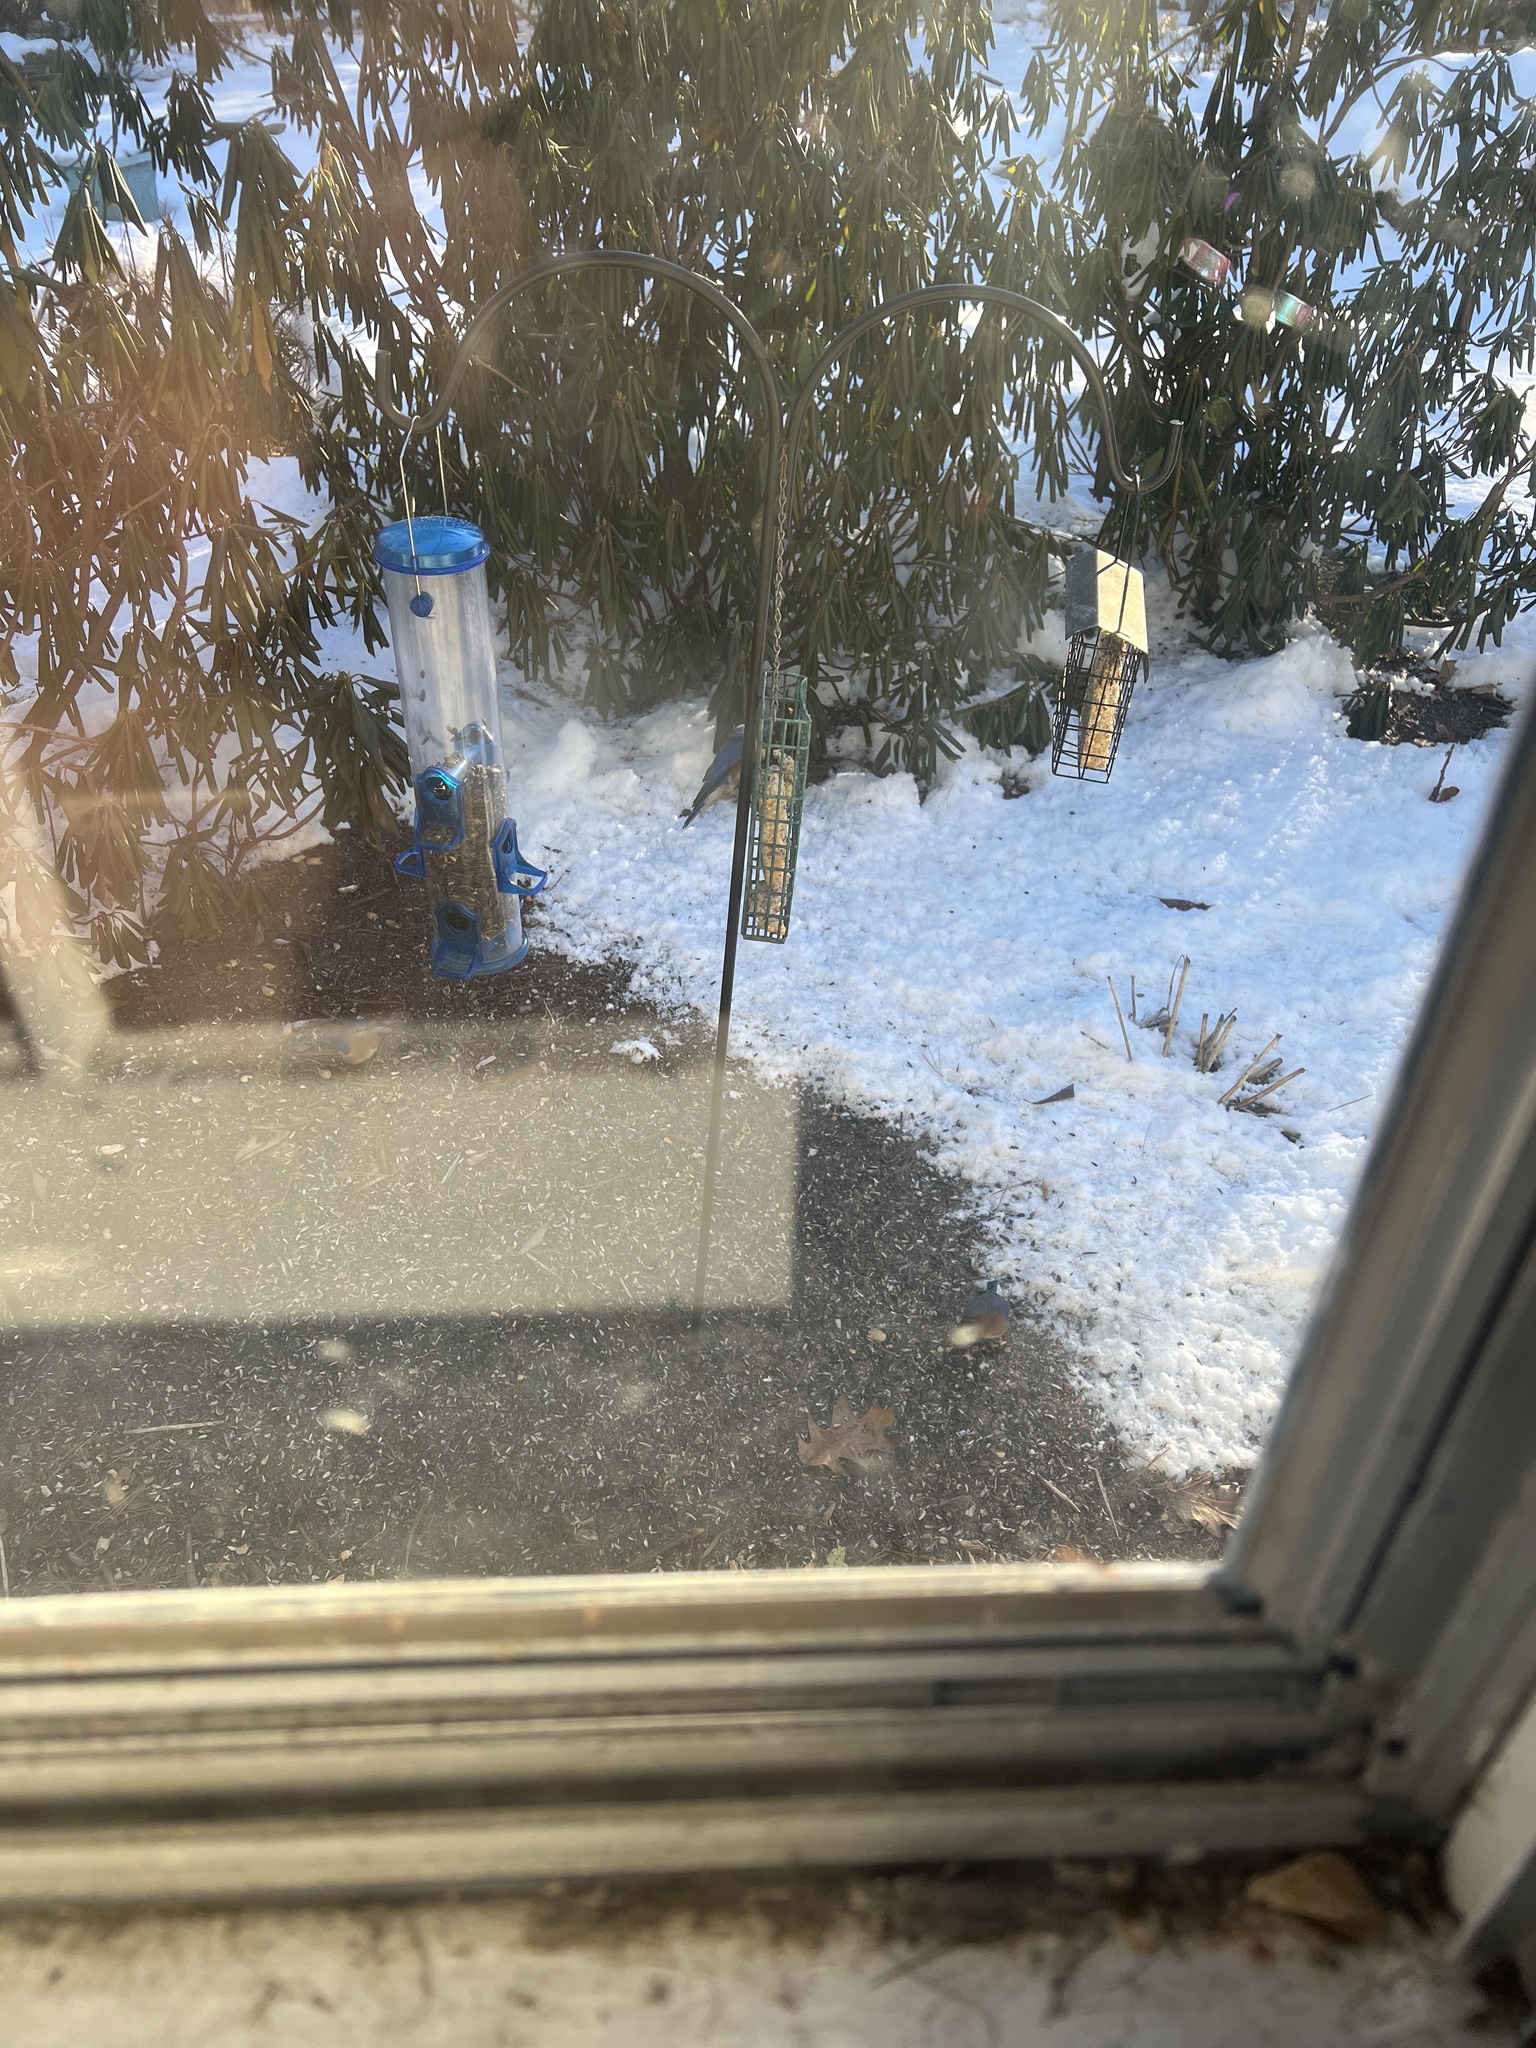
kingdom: Animalia
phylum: Chordata
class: Aves
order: Passeriformes
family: Turdidae
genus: Sialia
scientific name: Sialia sialis
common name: Eastern bluebird
